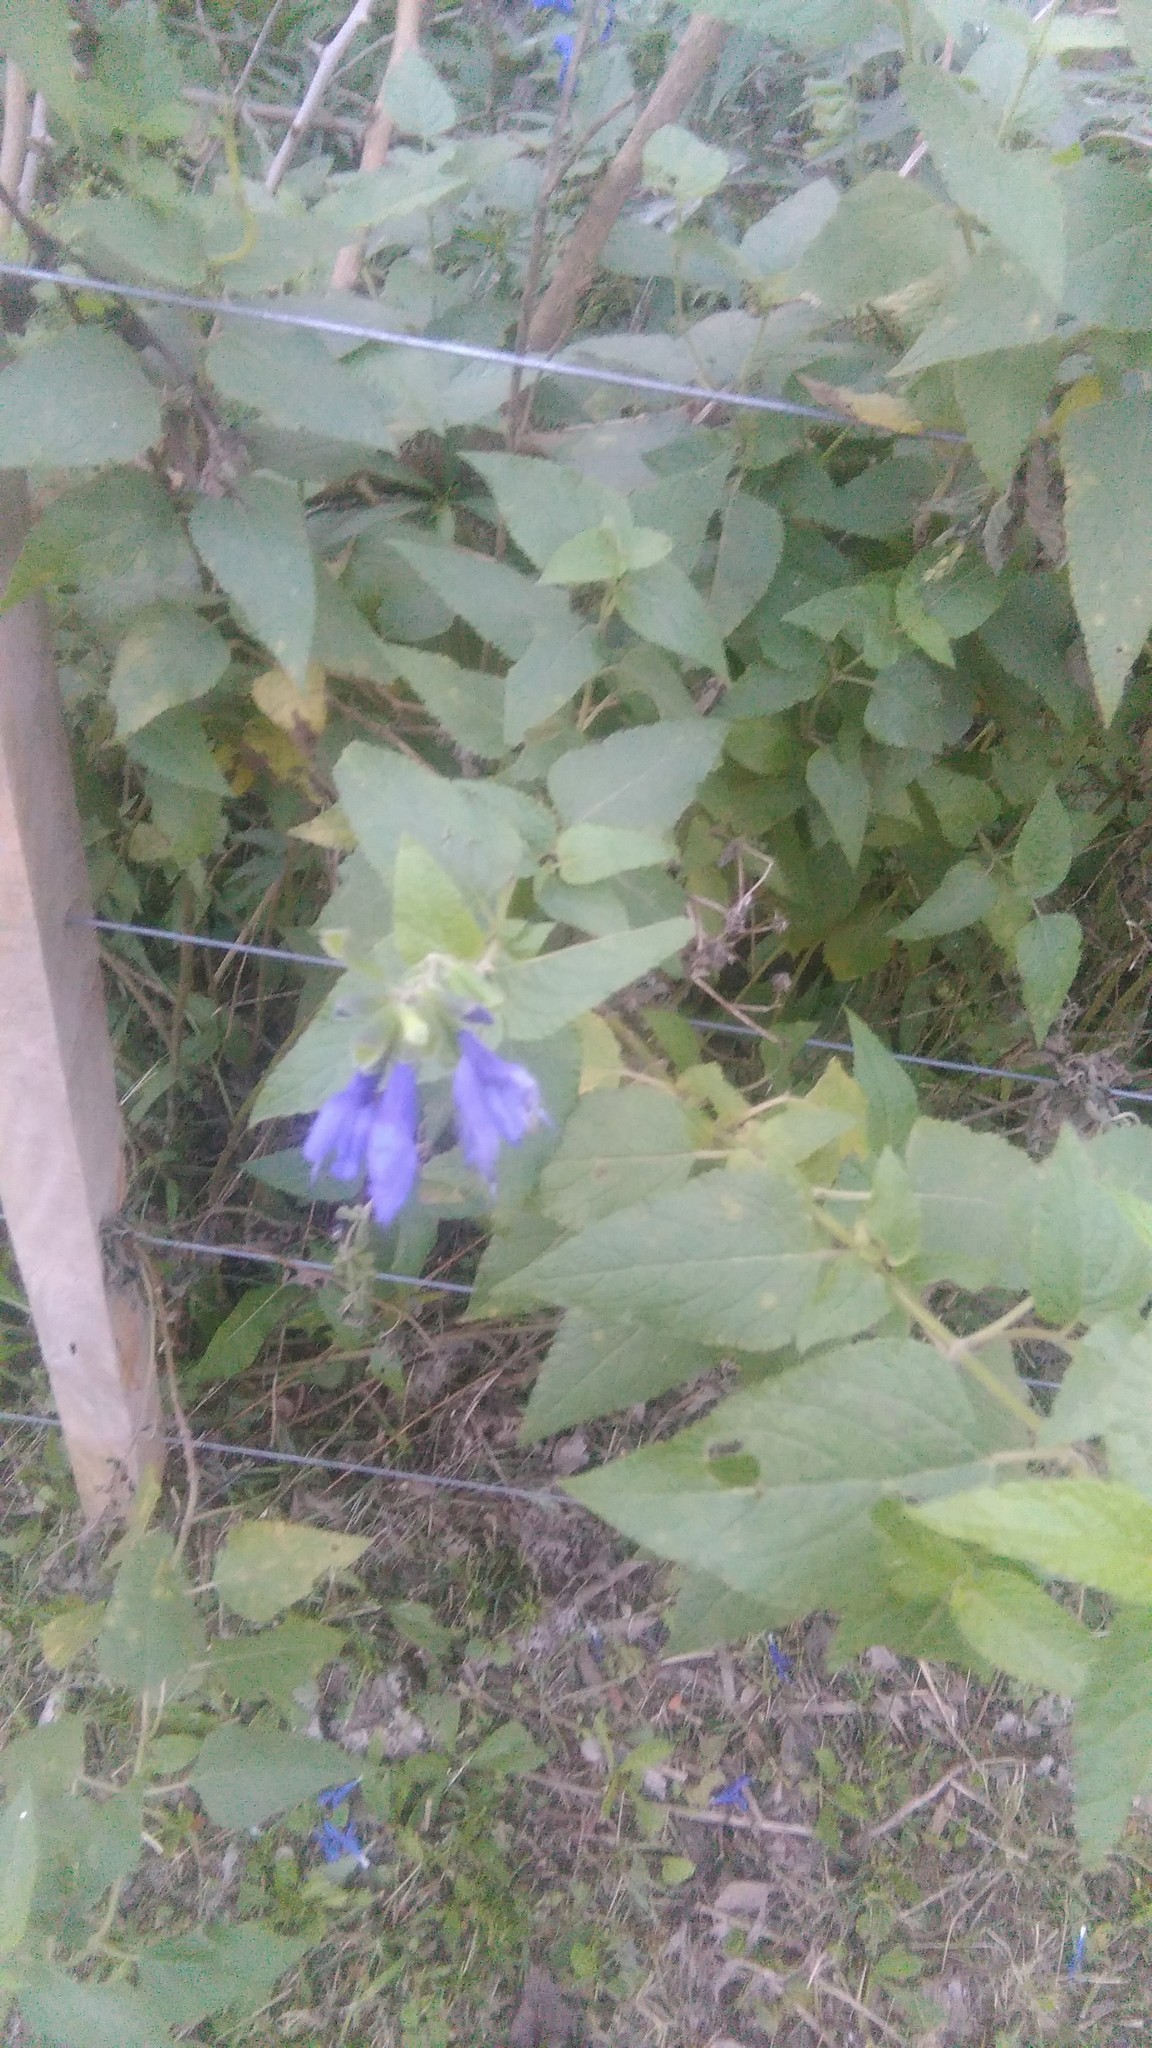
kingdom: Plantae
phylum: Tracheophyta
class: Magnoliopsida
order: Lamiales
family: Lamiaceae
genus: Salvia
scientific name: Salvia guaranitica
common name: Anise-scented sage
